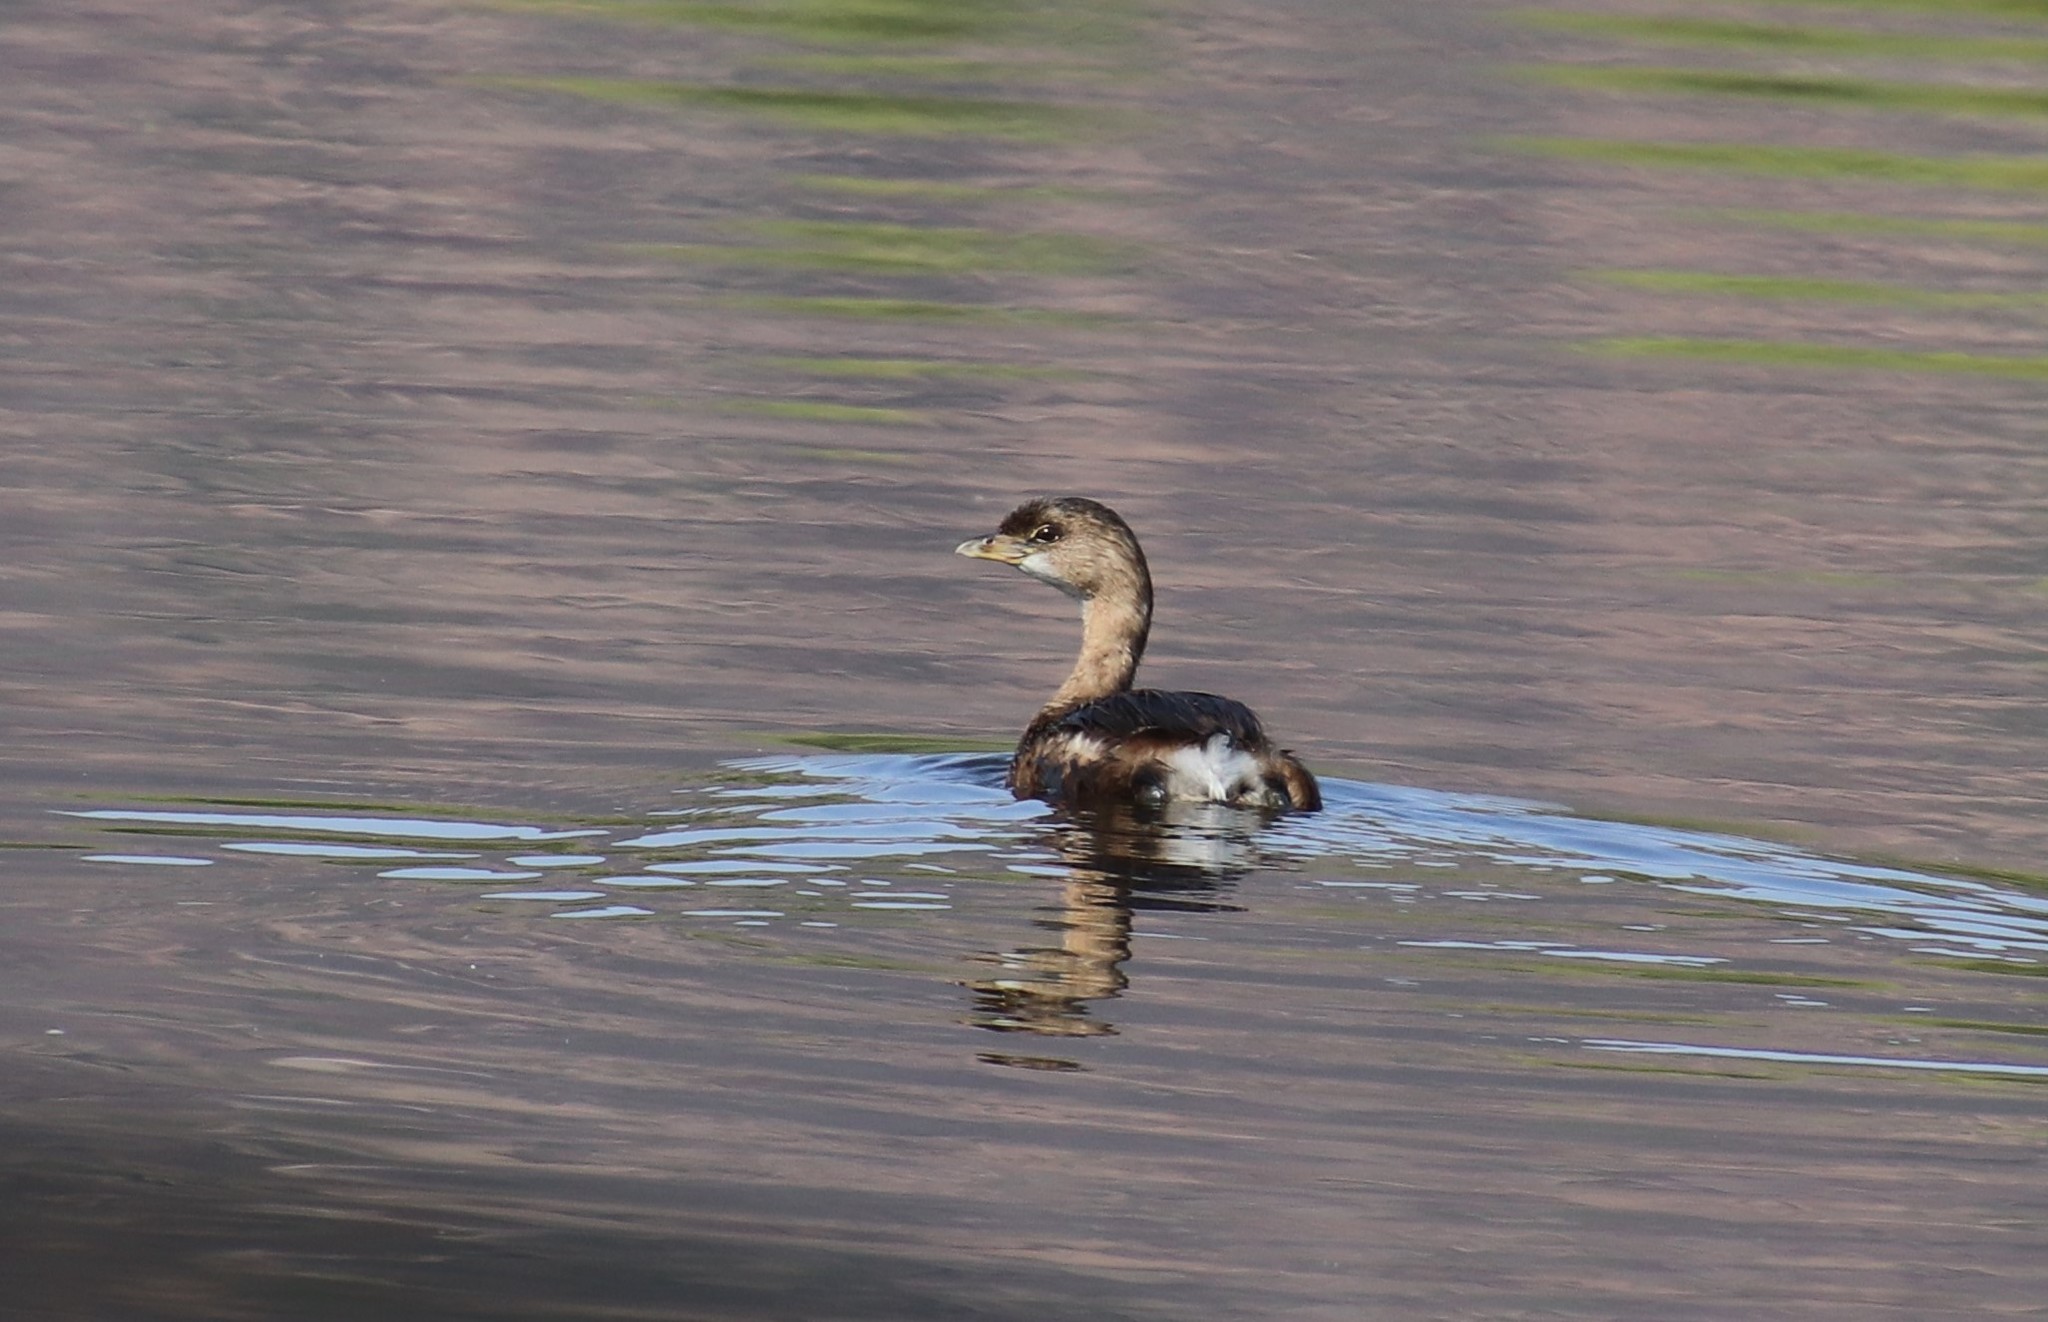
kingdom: Animalia
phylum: Chordata
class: Aves
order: Podicipediformes
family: Podicipedidae
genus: Podilymbus
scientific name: Podilymbus podiceps
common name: Pied-billed grebe
